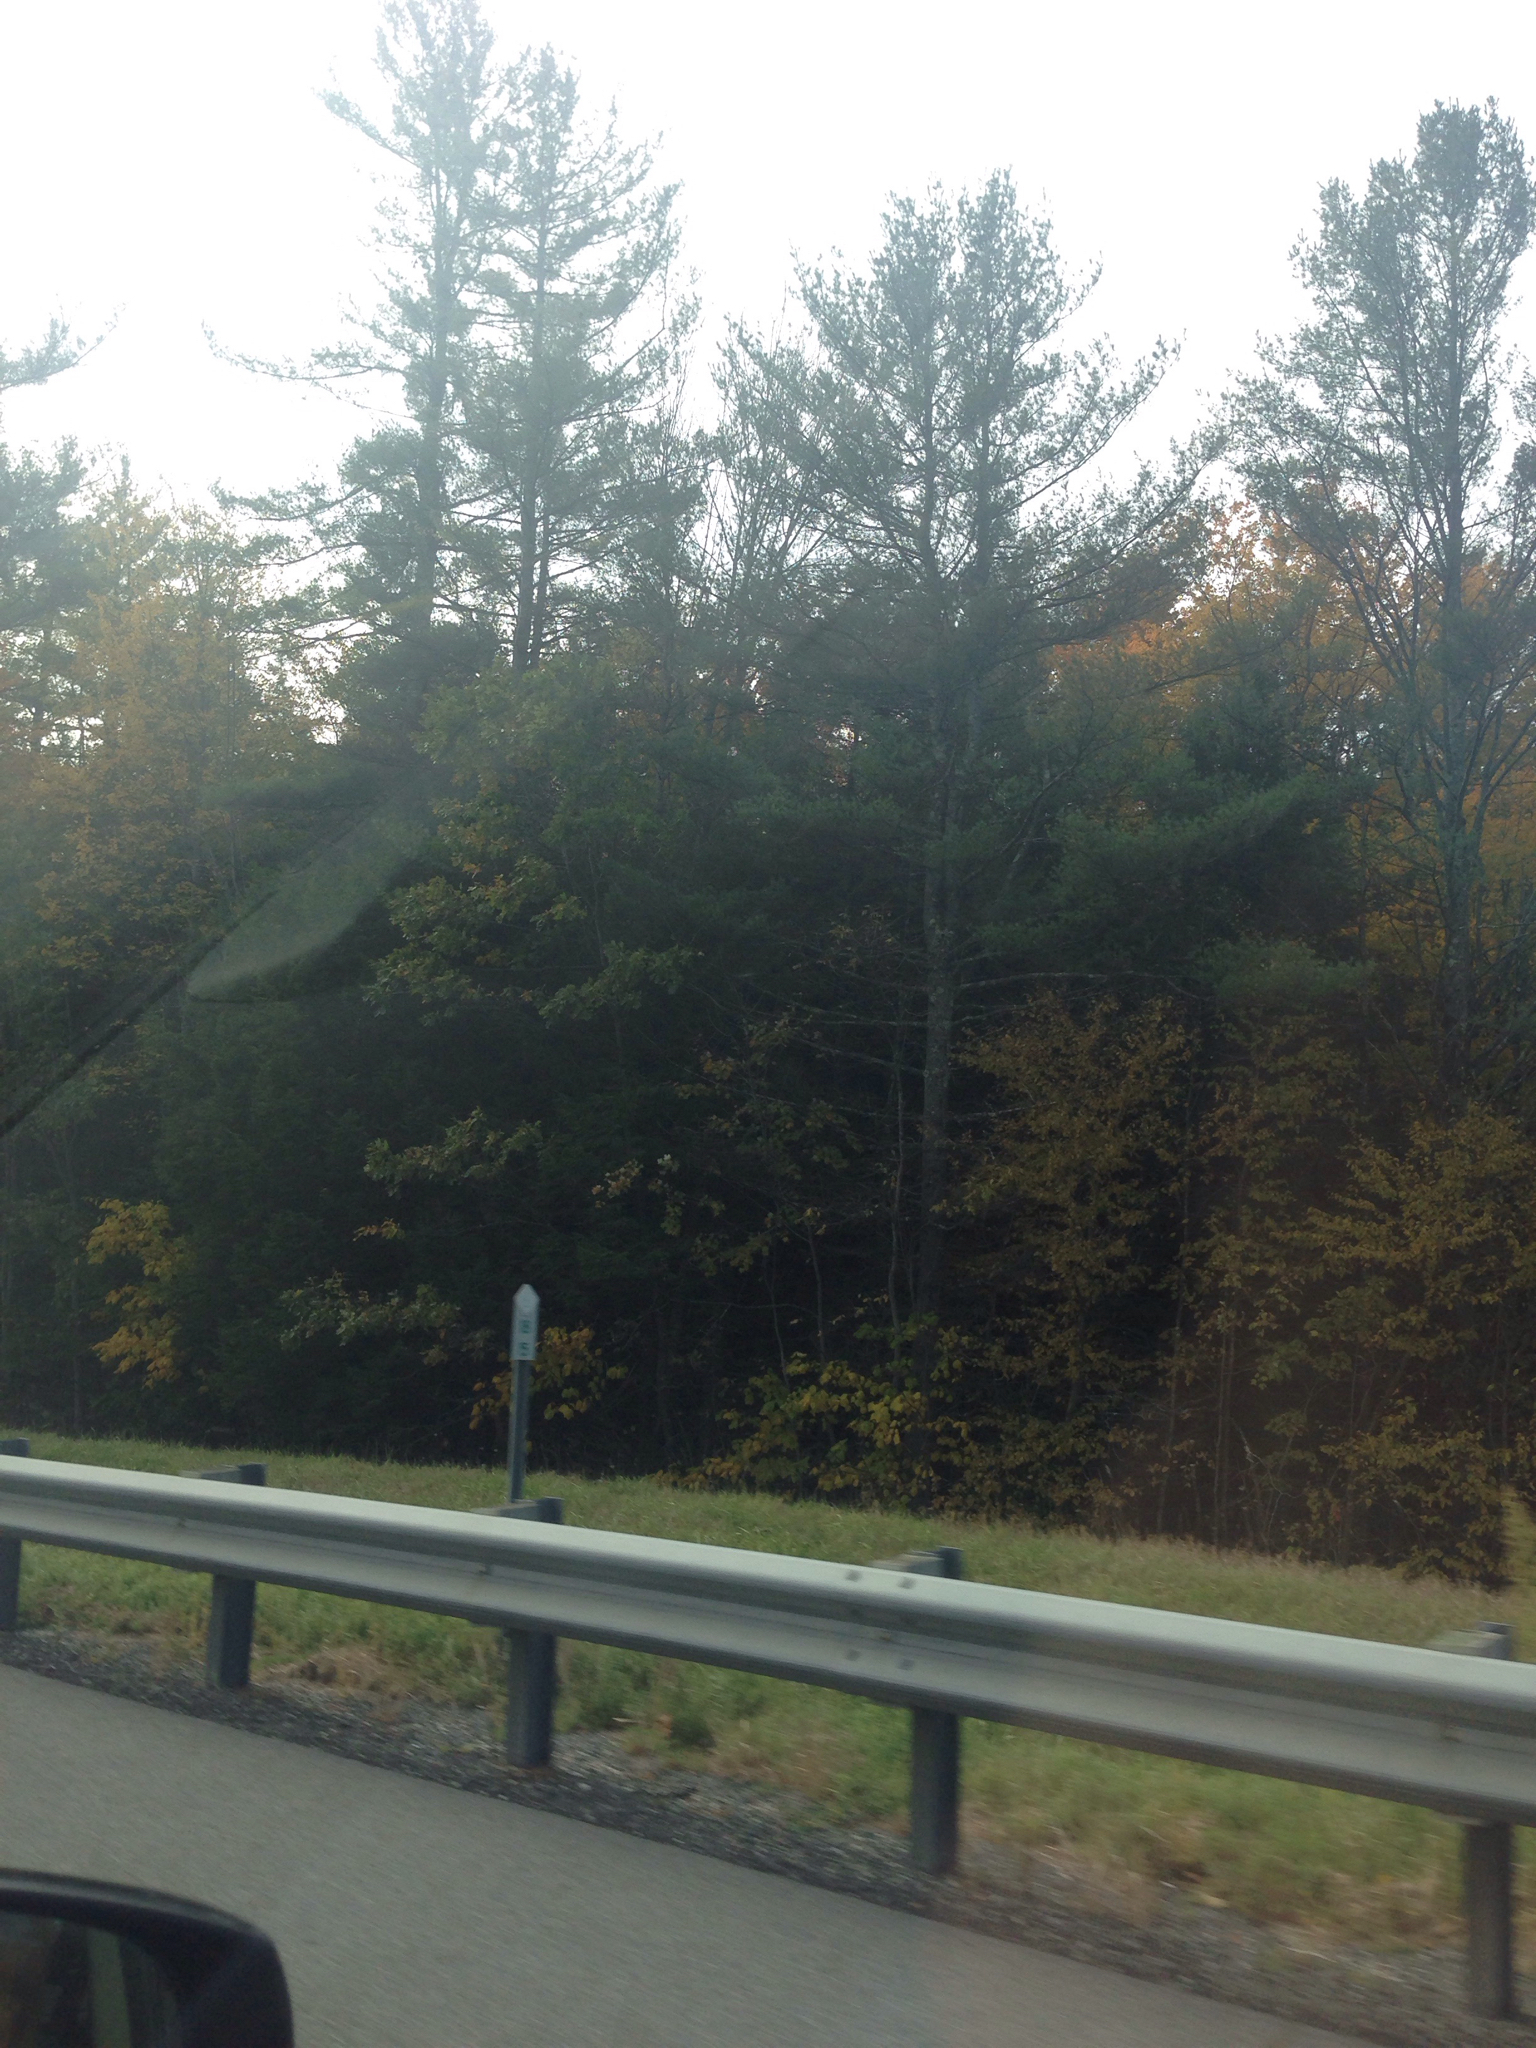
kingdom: Plantae
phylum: Tracheophyta
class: Pinopsida
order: Pinales
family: Pinaceae
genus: Pinus
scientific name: Pinus strobus
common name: Weymouth pine
